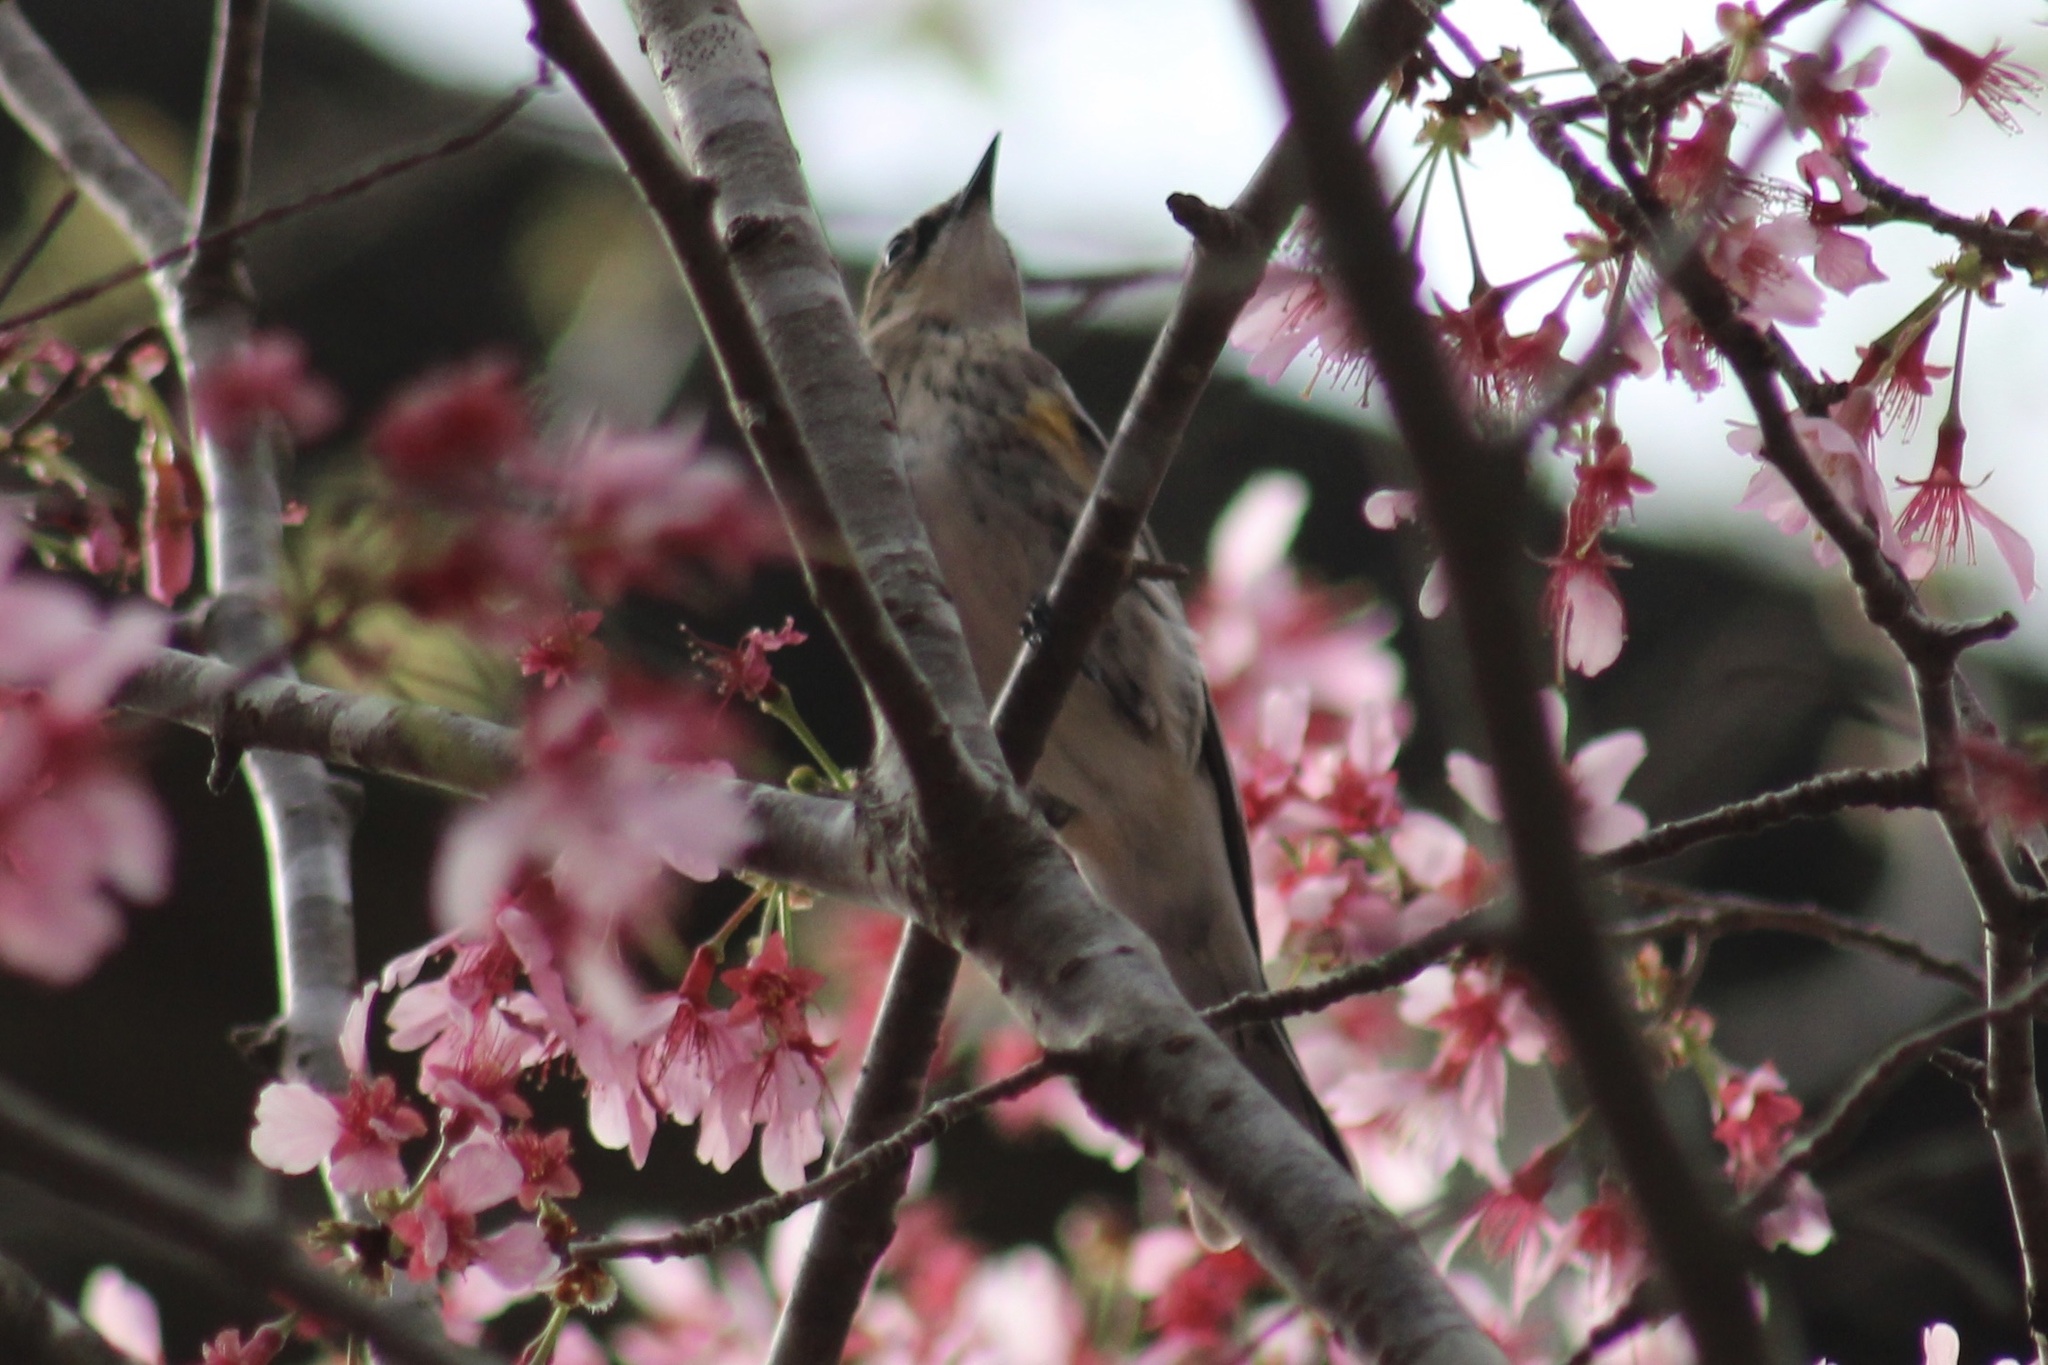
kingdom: Animalia
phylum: Chordata
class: Aves
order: Passeriformes
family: Parulidae
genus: Setophaga
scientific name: Setophaga coronata
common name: Myrtle warbler
